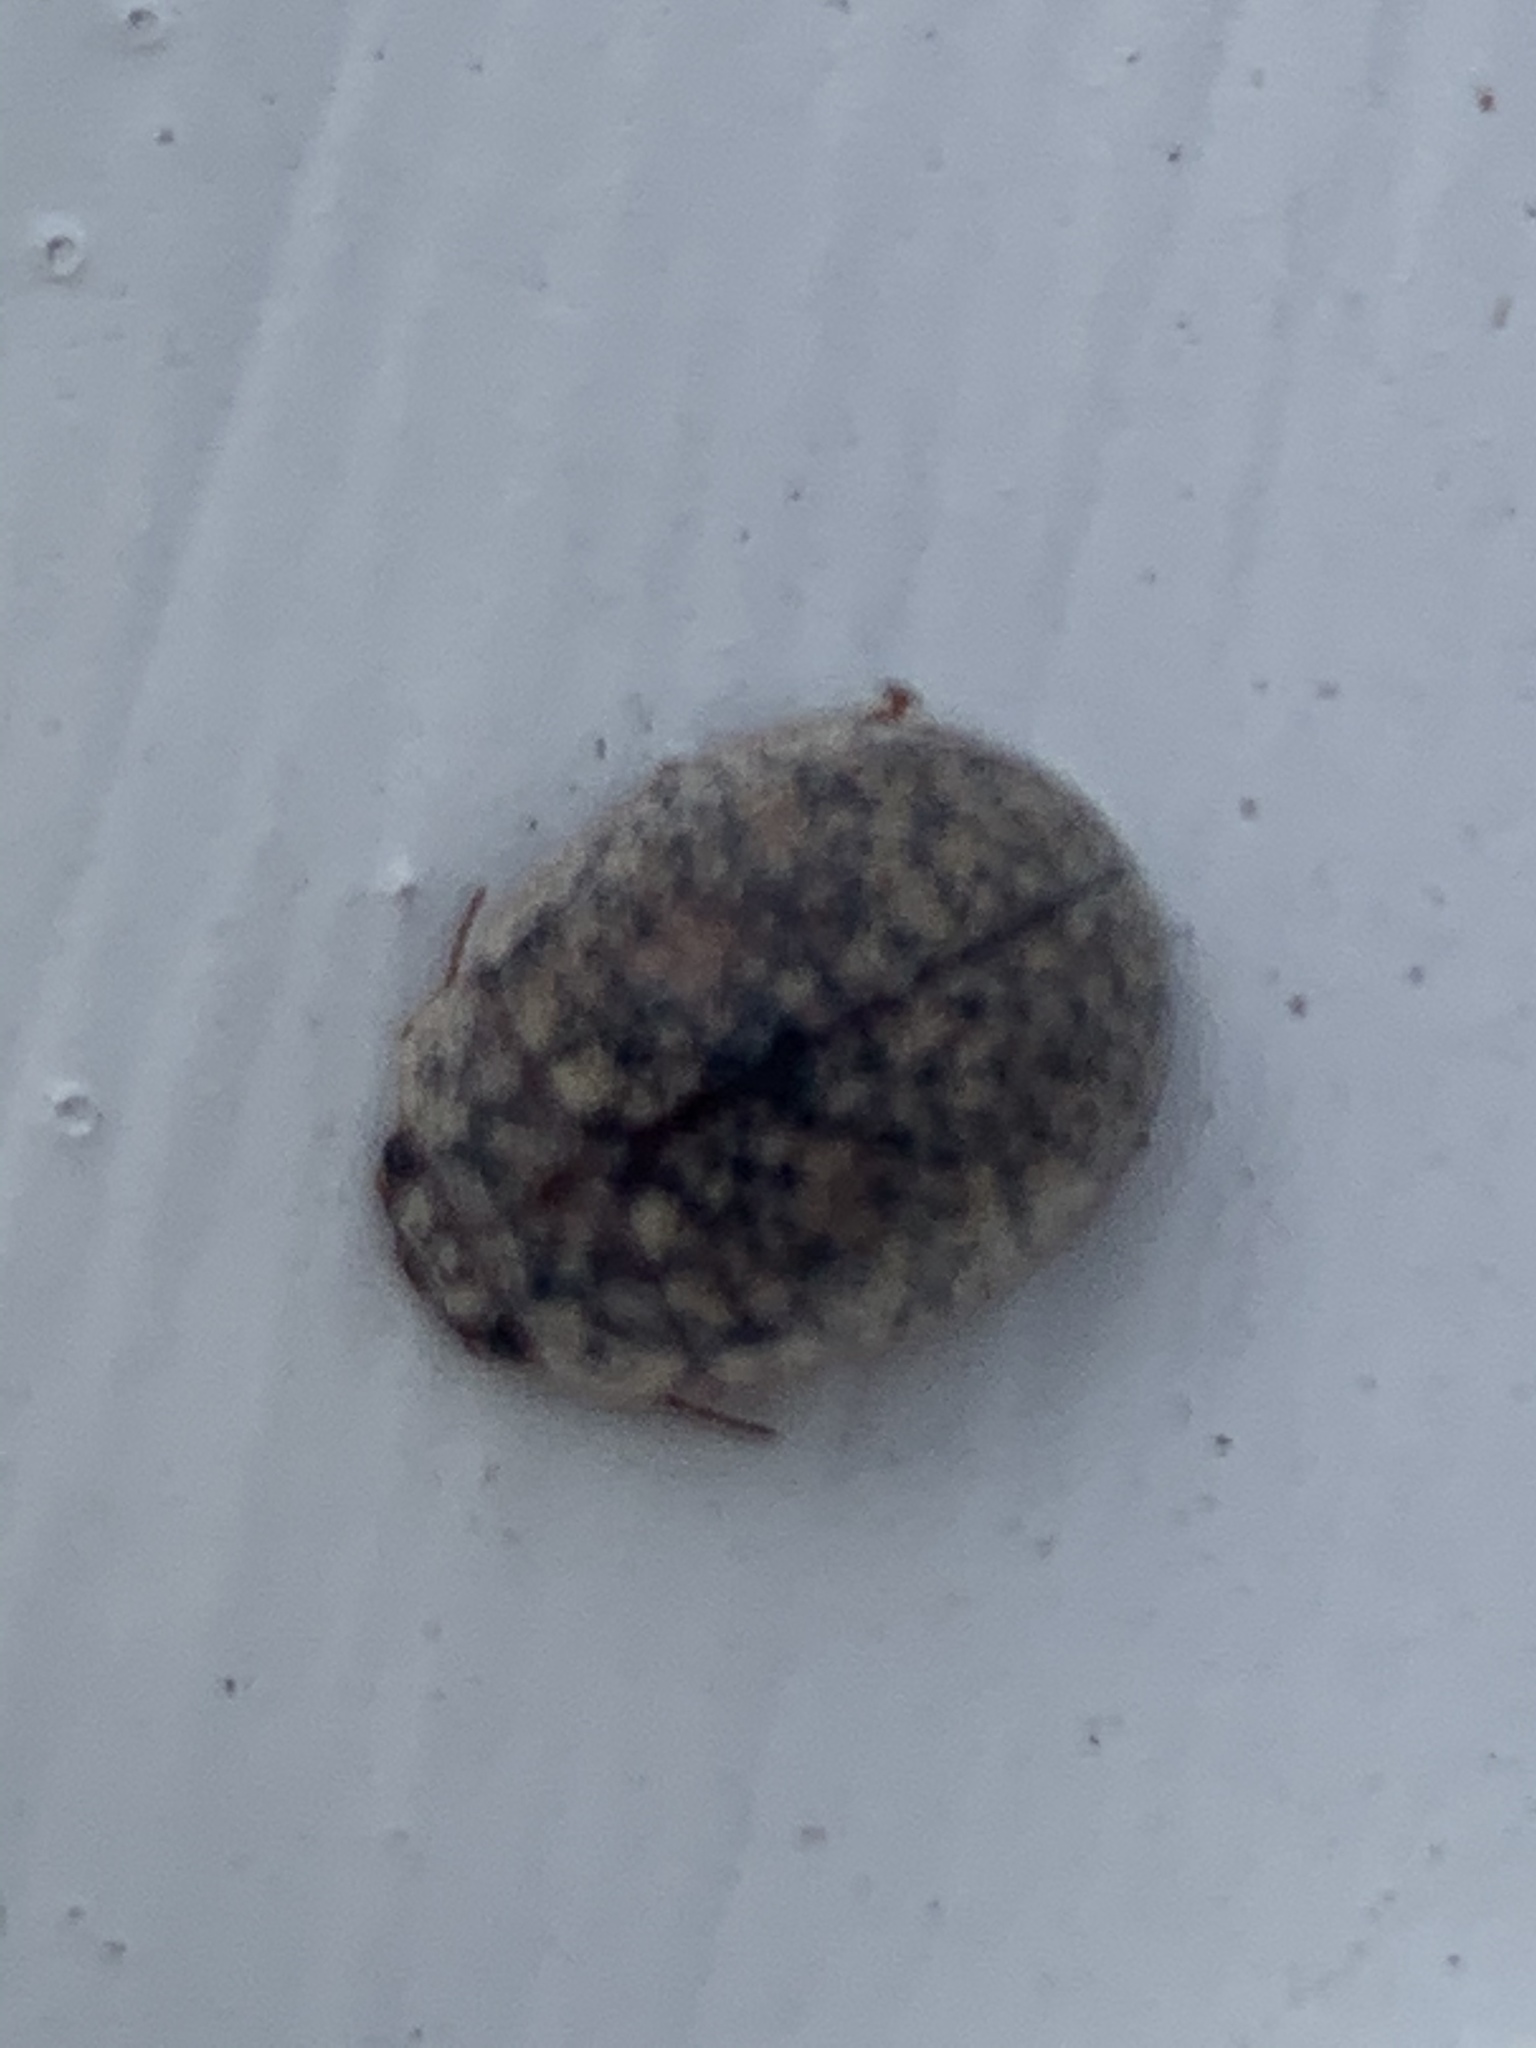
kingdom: Animalia
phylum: Arthropoda
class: Insecta
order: Coleoptera
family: Chrysomelidae
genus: Trachymela
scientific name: Trachymela sloanei
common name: Australian tortoise beetle
